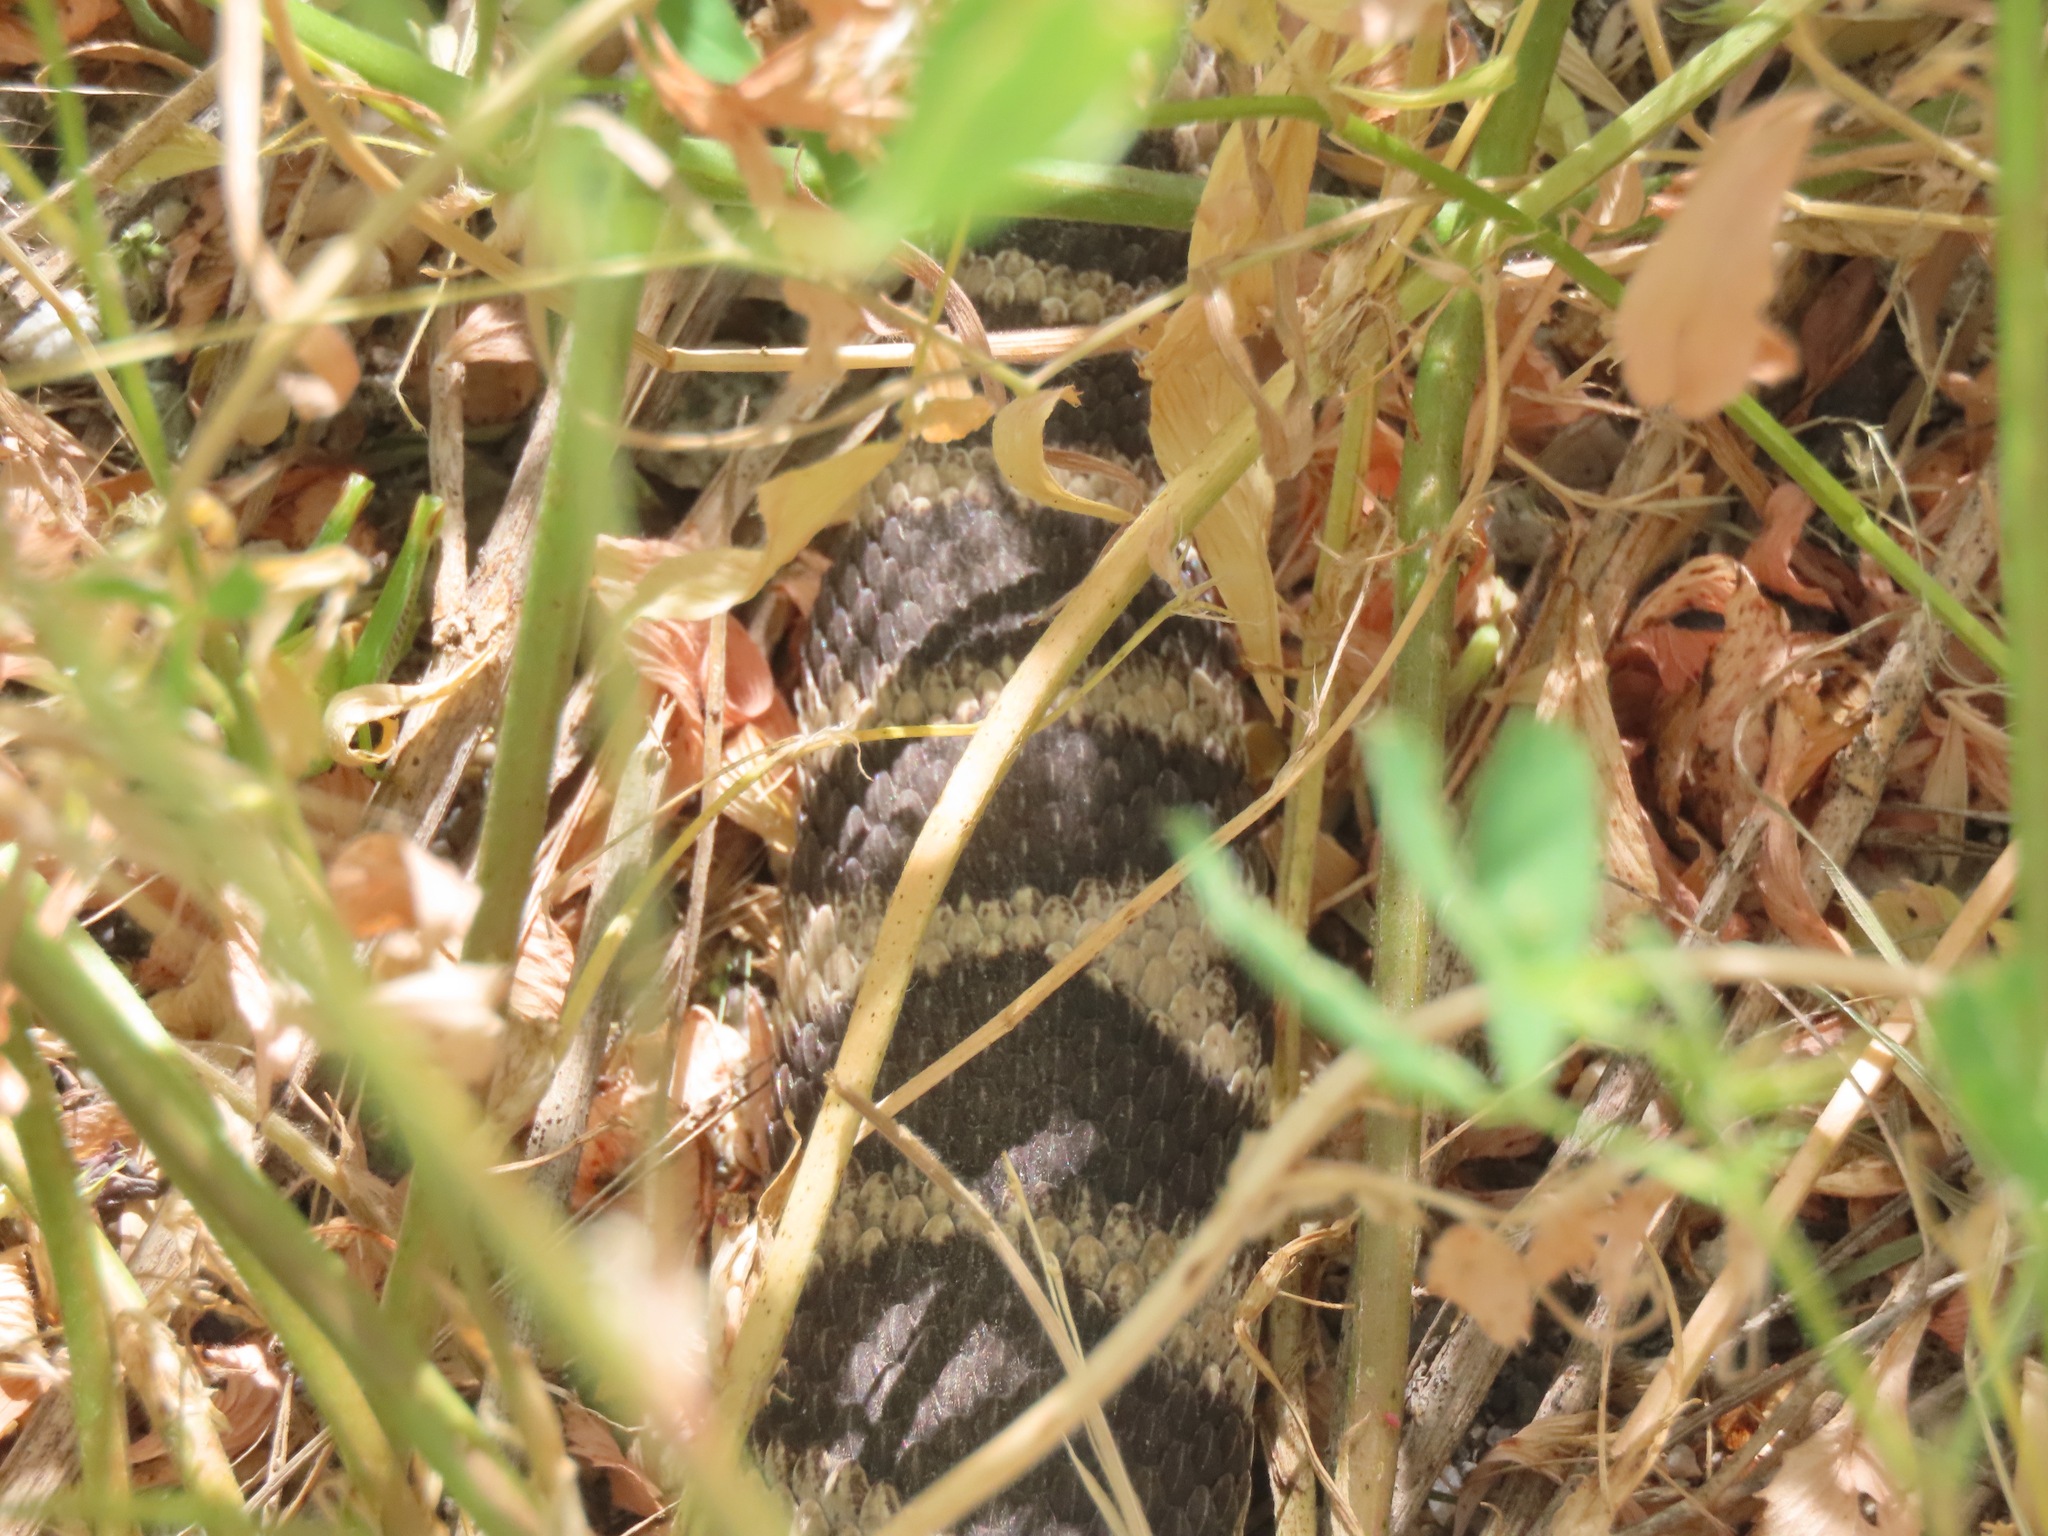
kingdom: Animalia
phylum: Chordata
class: Squamata
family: Viperidae
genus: Crotalus
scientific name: Crotalus oreganus
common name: Abyssus
